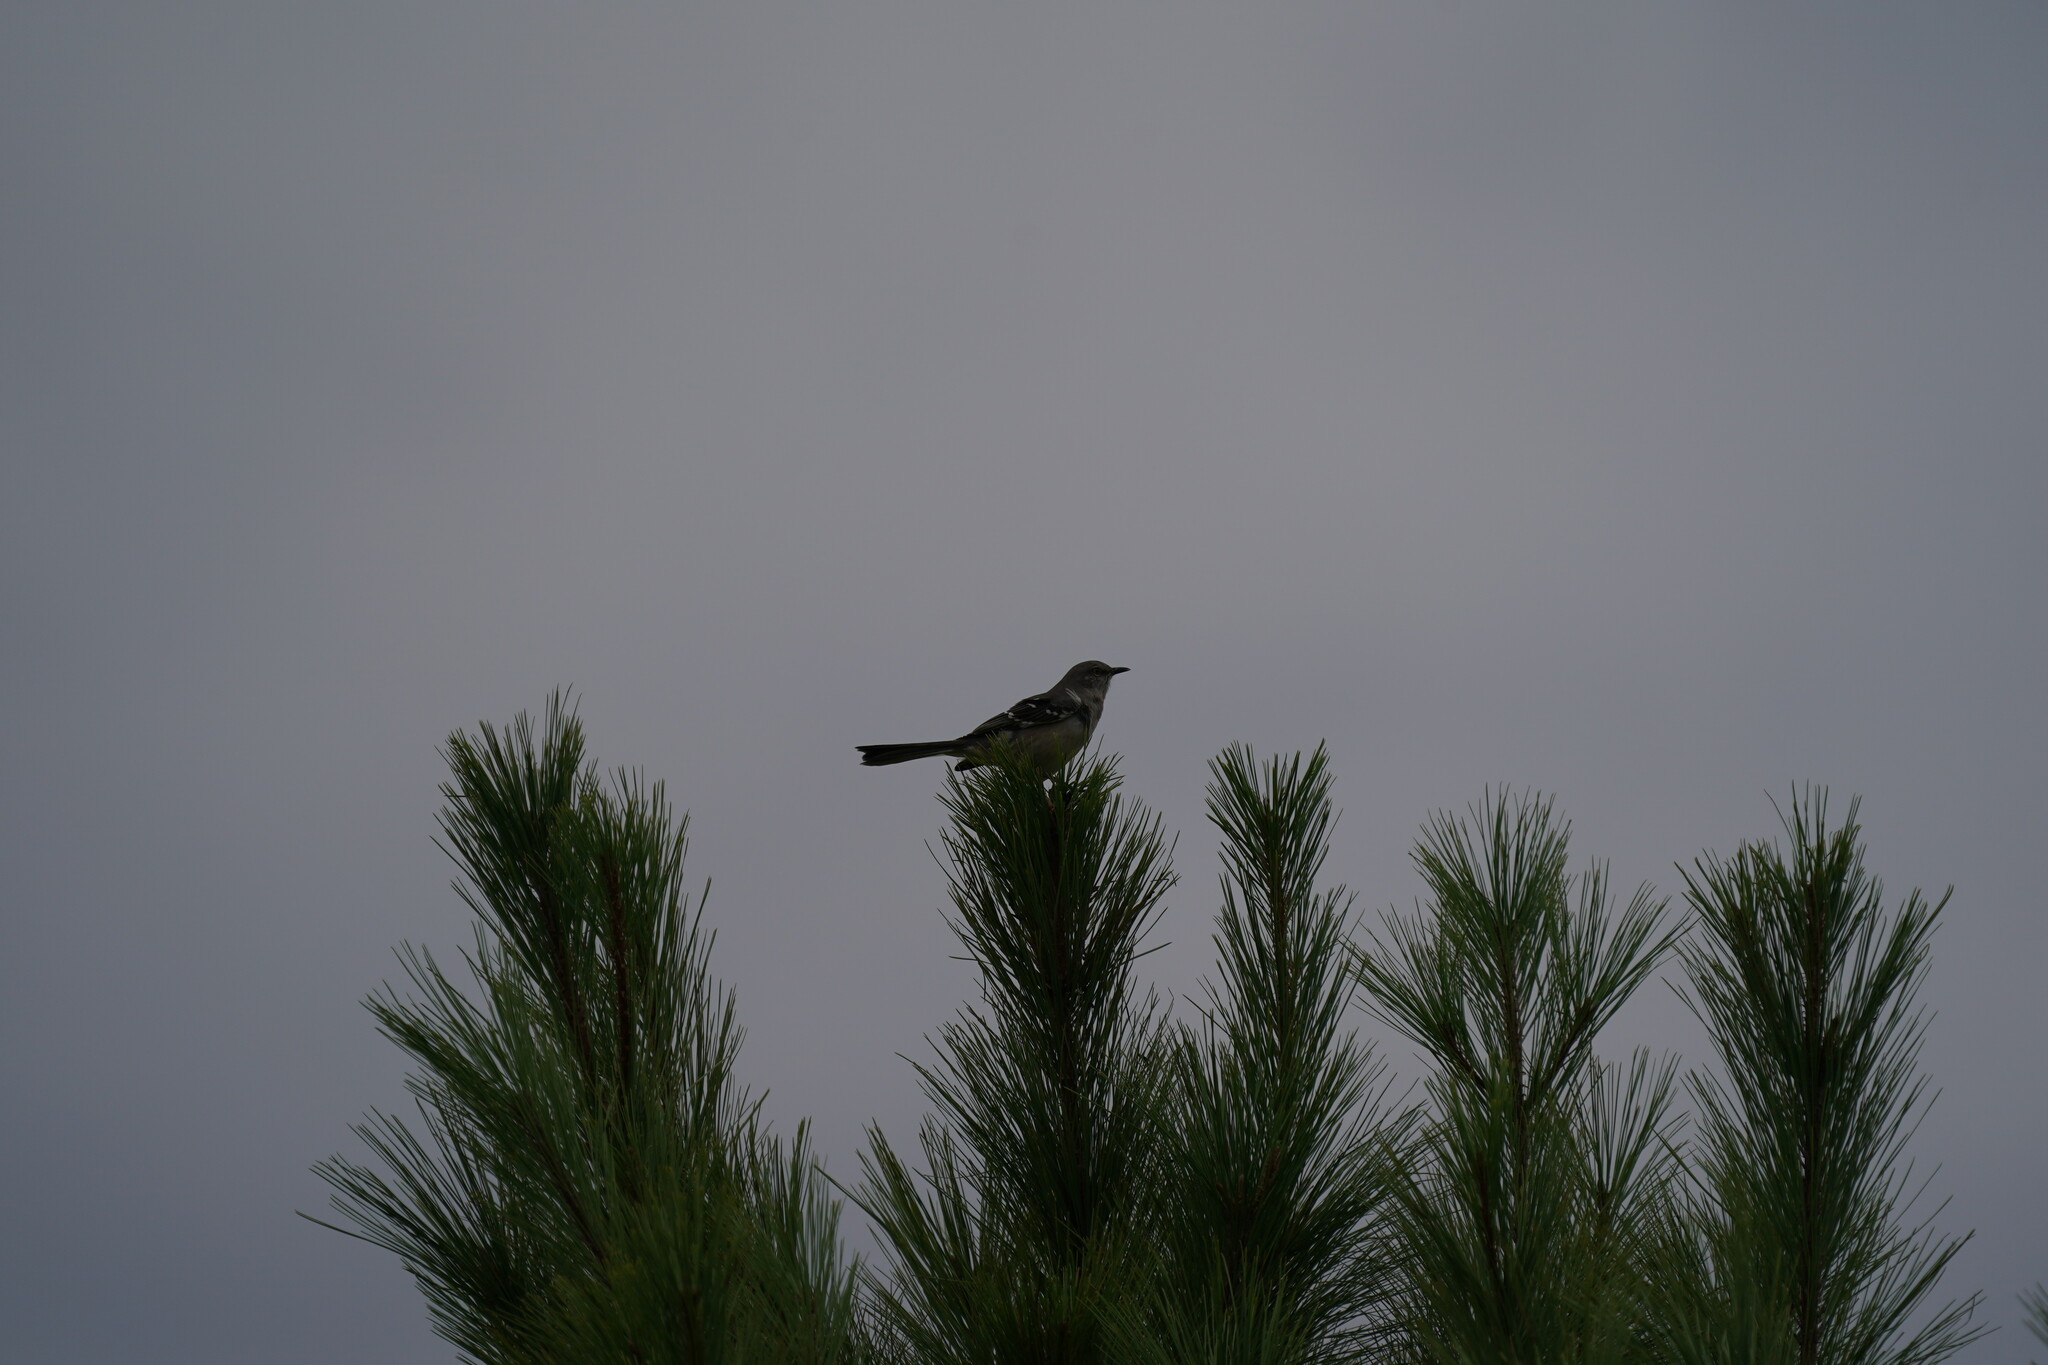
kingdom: Animalia
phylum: Chordata
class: Aves
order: Passeriformes
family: Mimidae
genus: Mimus
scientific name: Mimus polyglottos
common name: Northern mockingbird
